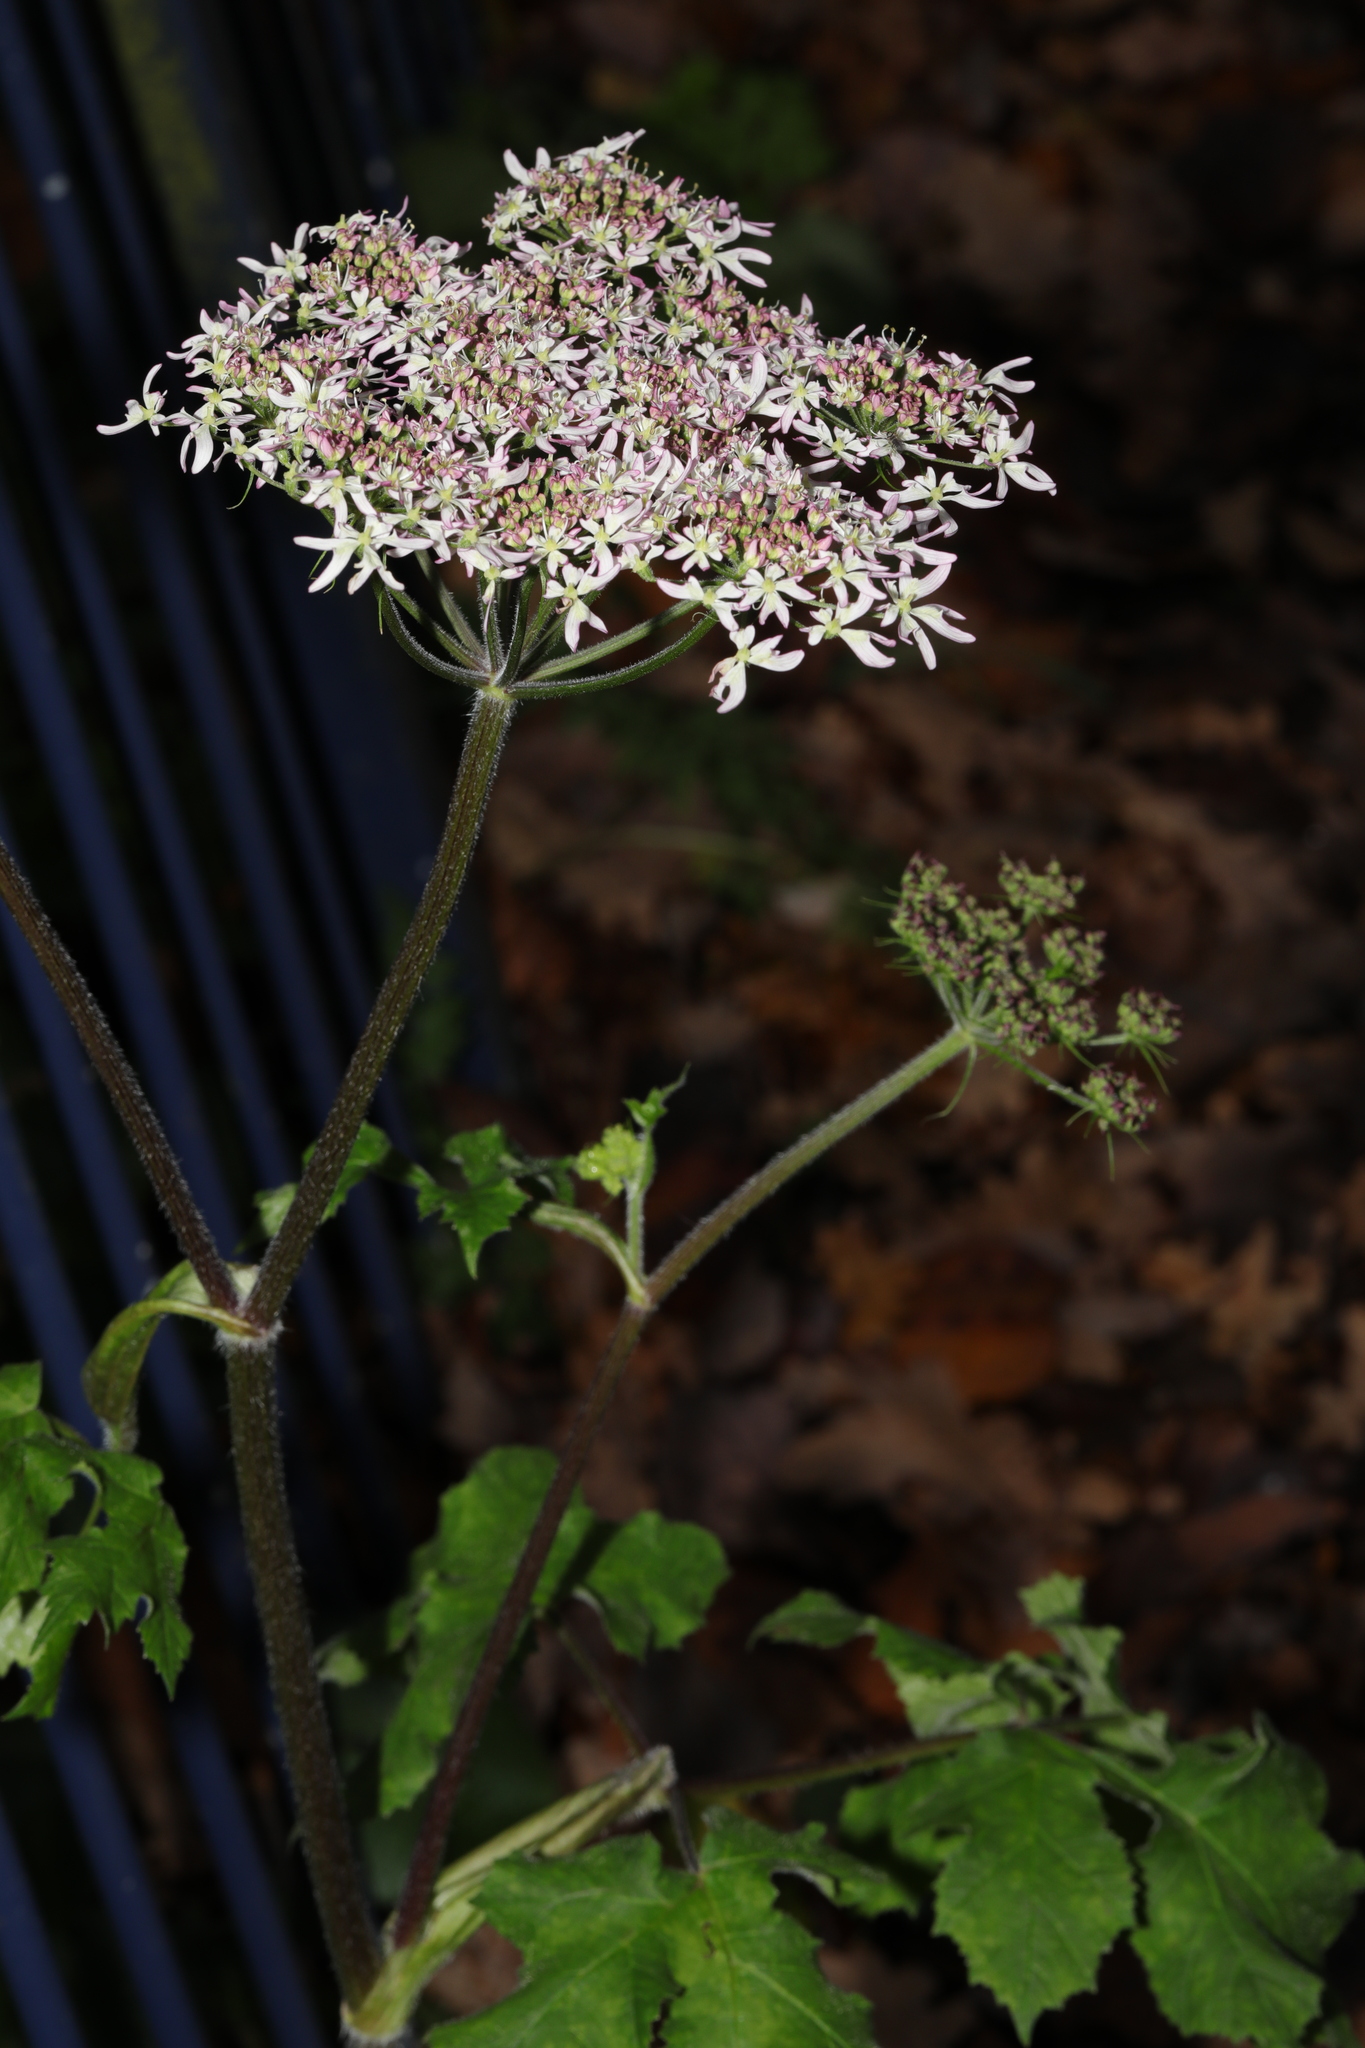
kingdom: Plantae
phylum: Tracheophyta
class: Magnoliopsida
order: Apiales
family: Apiaceae
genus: Heracleum
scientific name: Heracleum sphondylium
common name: Hogweed
